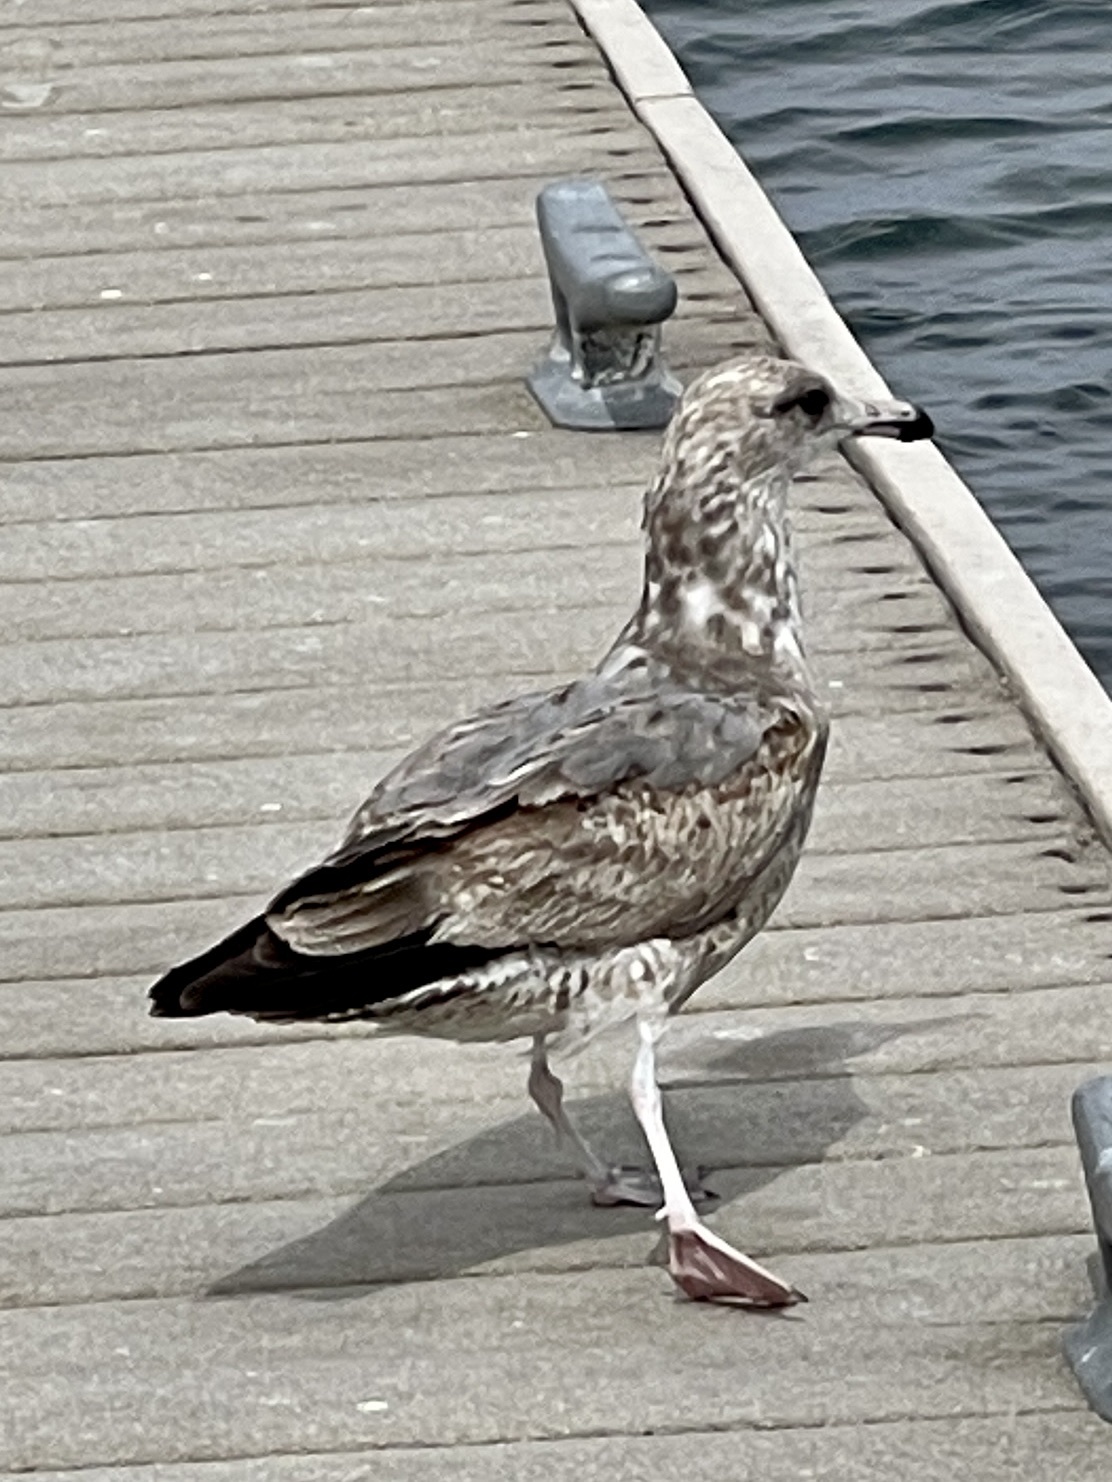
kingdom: Animalia
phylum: Chordata
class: Aves
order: Charadriiformes
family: Laridae
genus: Larus
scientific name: Larus californicus
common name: California gull
